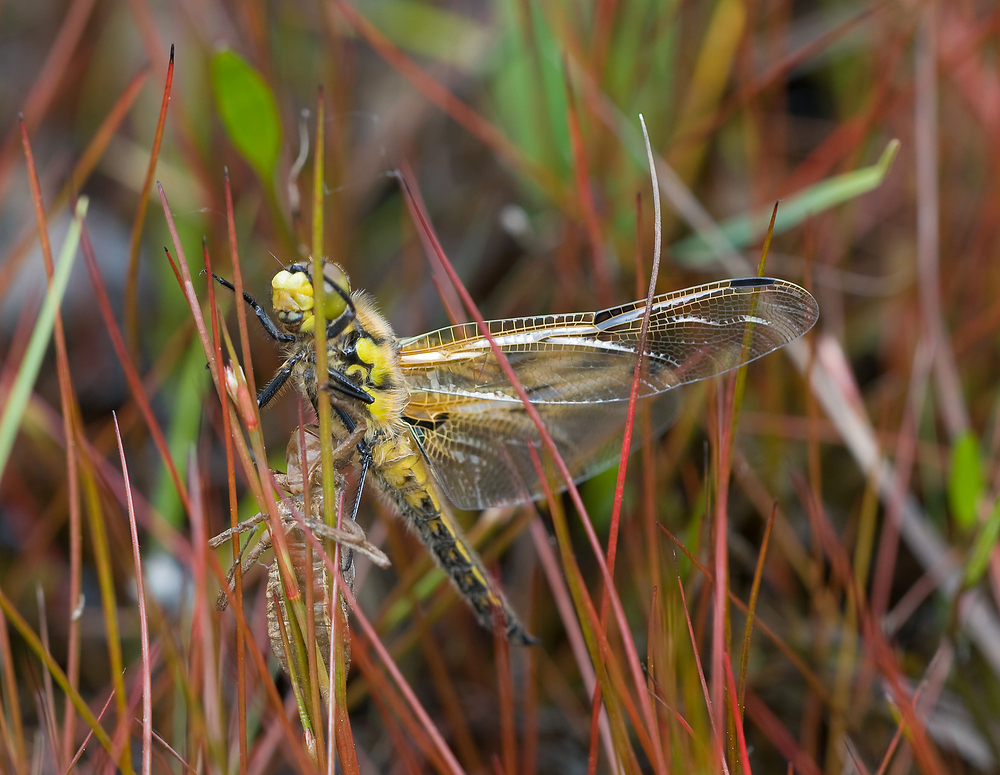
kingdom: Animalia
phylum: Arthropoda
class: Insecta
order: Odonata
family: Libellulidae
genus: Libellula
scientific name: Libellula quadrimaculata
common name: Four-spotted chaser
